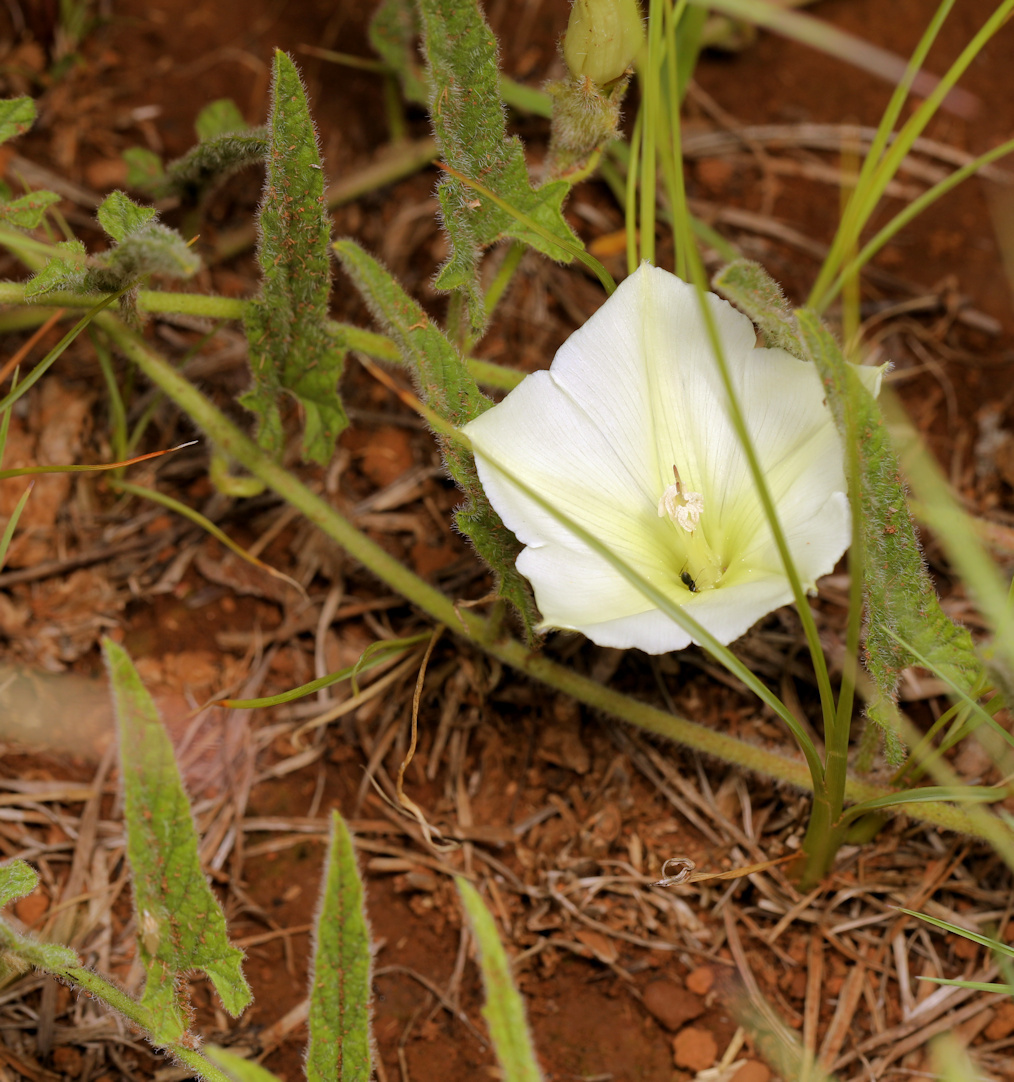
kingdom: Plantae
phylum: Tracheophyta
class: Magnoliopsida
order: Solanales
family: Convolvulaceae
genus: Convolvulus
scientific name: Convolvulus natalensis
